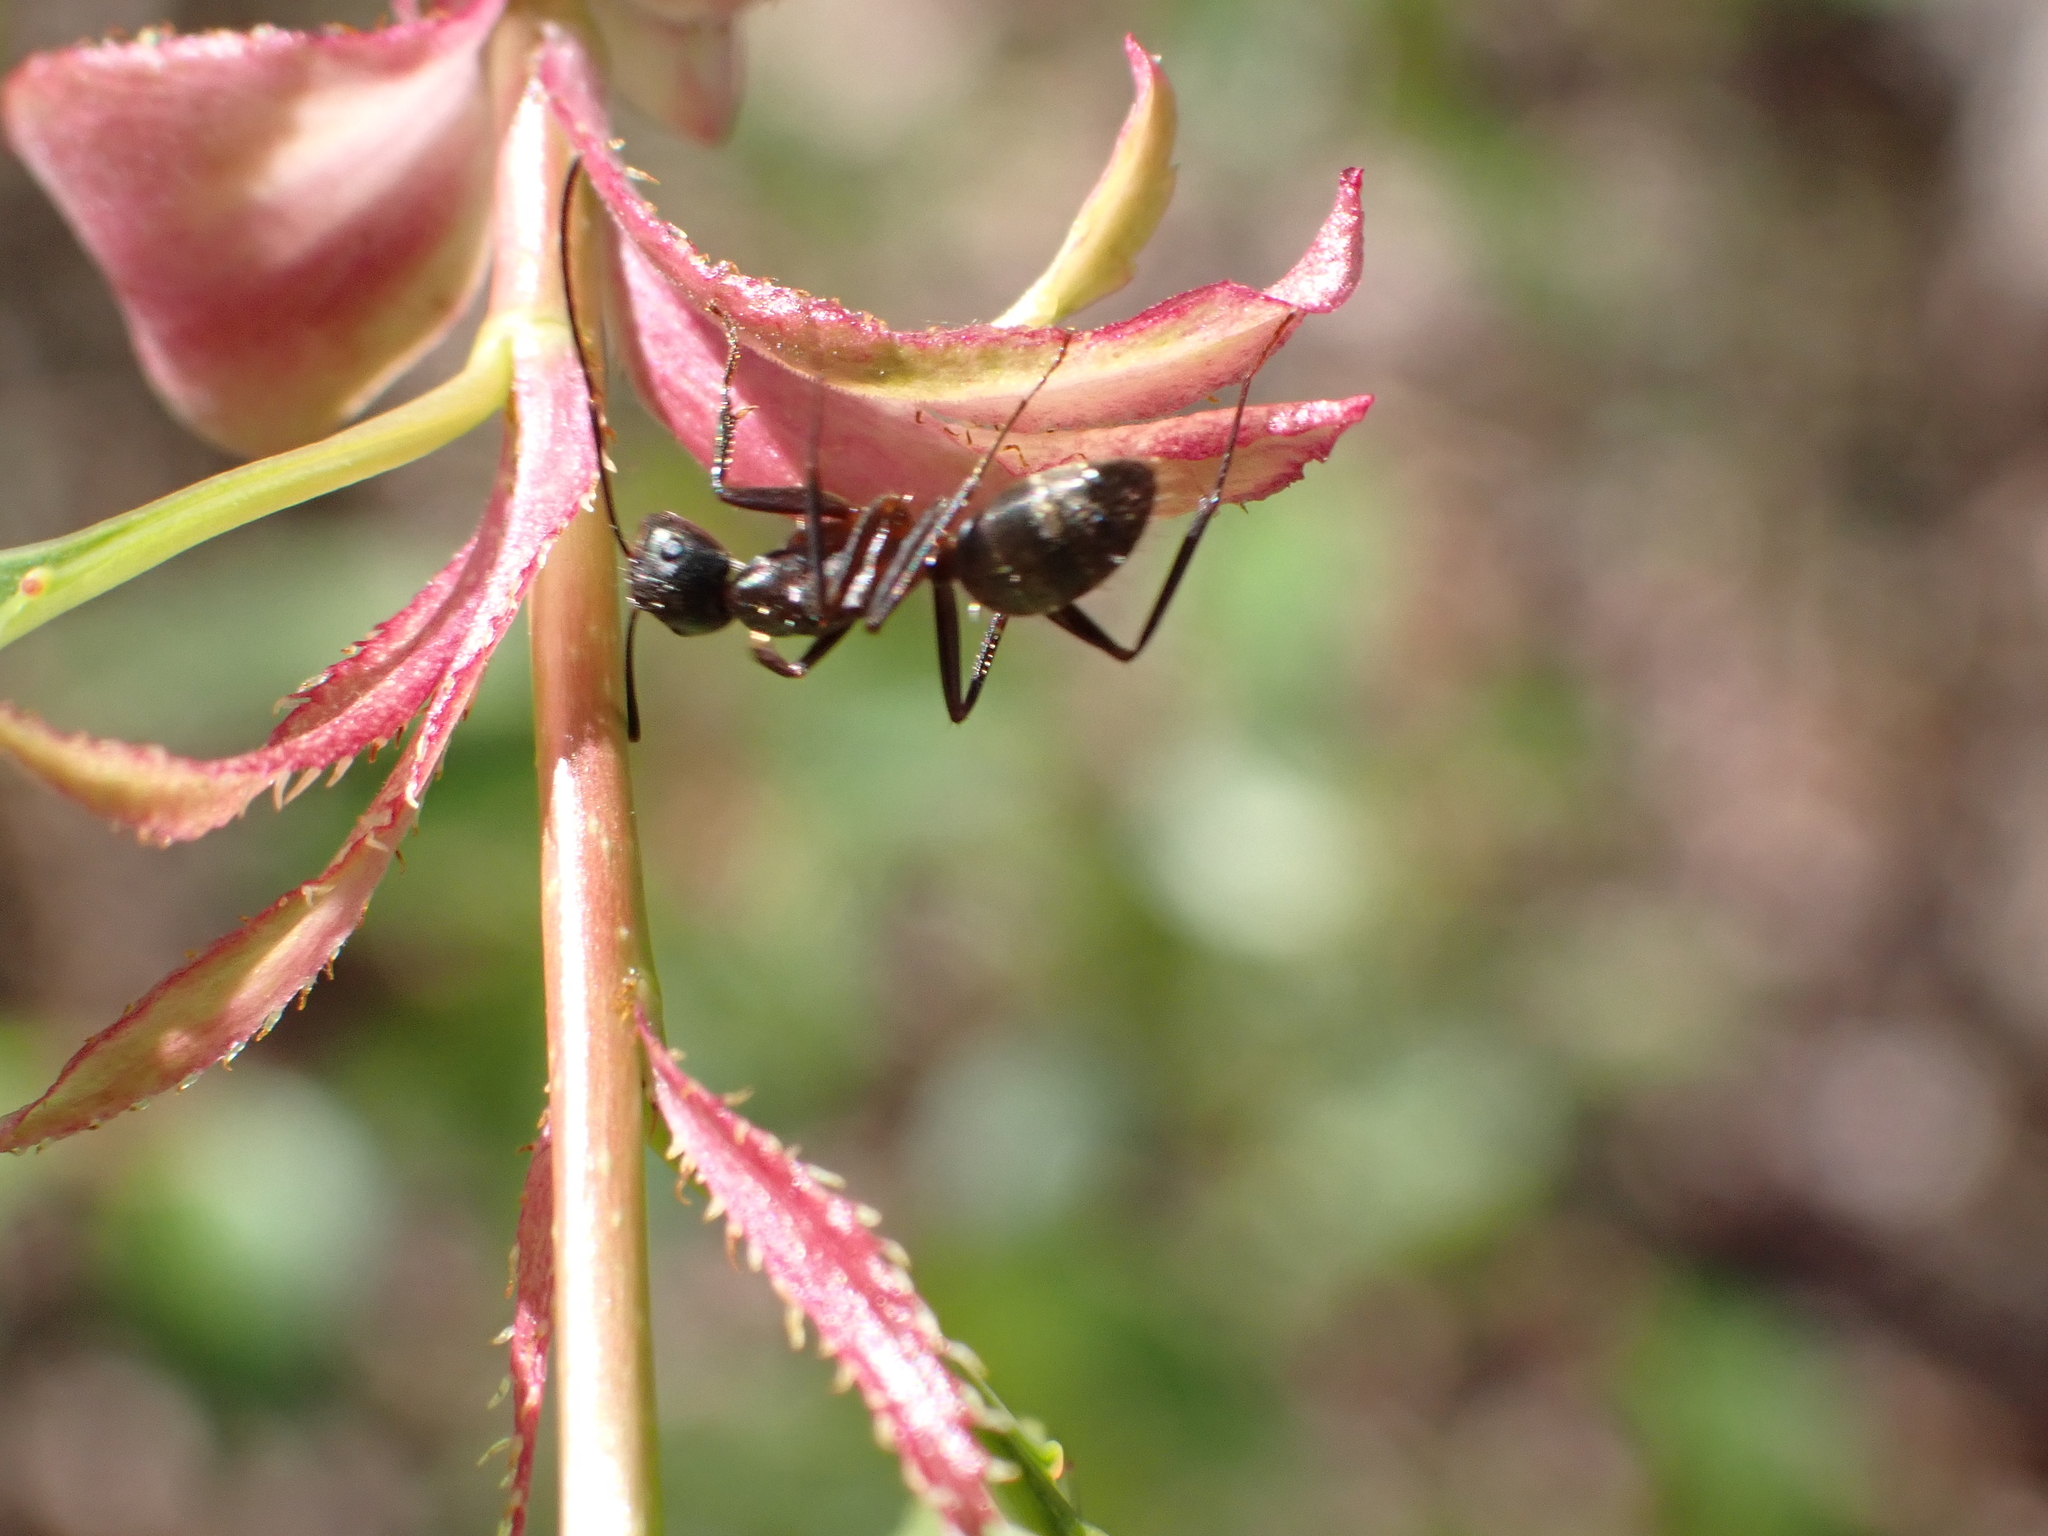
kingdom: Animalia
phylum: Arthropoda
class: Insecta
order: Hymenoptera
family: Formicidae
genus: Camponotus
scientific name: Camponotus pennsylvanicus
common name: Black carpenter ant
